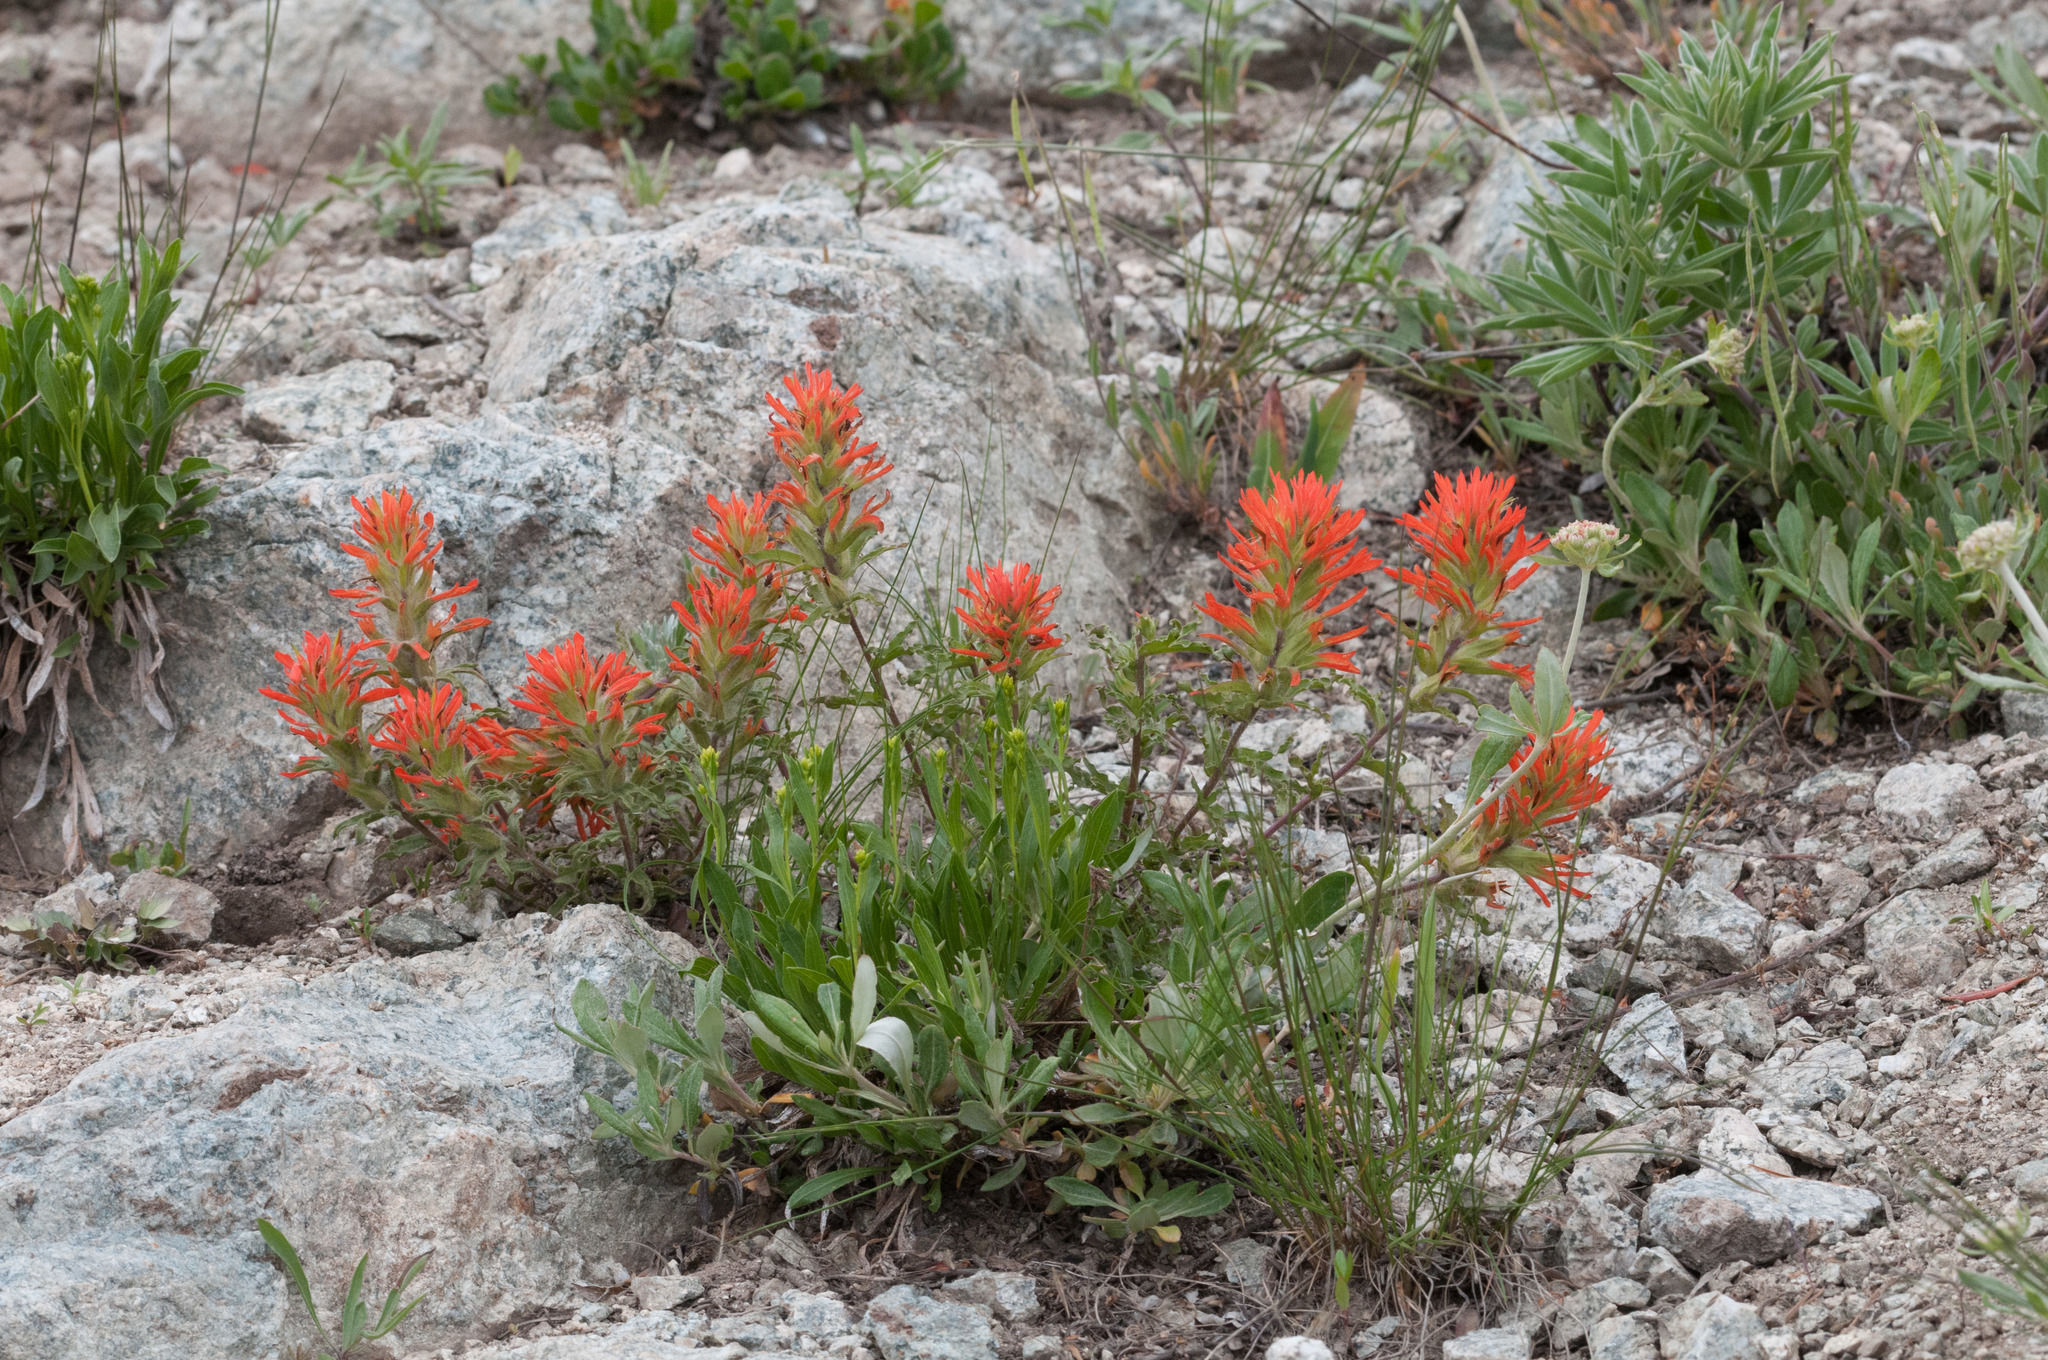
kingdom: Plantae
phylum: Tracheophyta
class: Magnoliopsida
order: Lamiales
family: Orobanchaceae
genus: Castilleja
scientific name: Castilleja applegatei
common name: Wavy-leaf paintbrush
